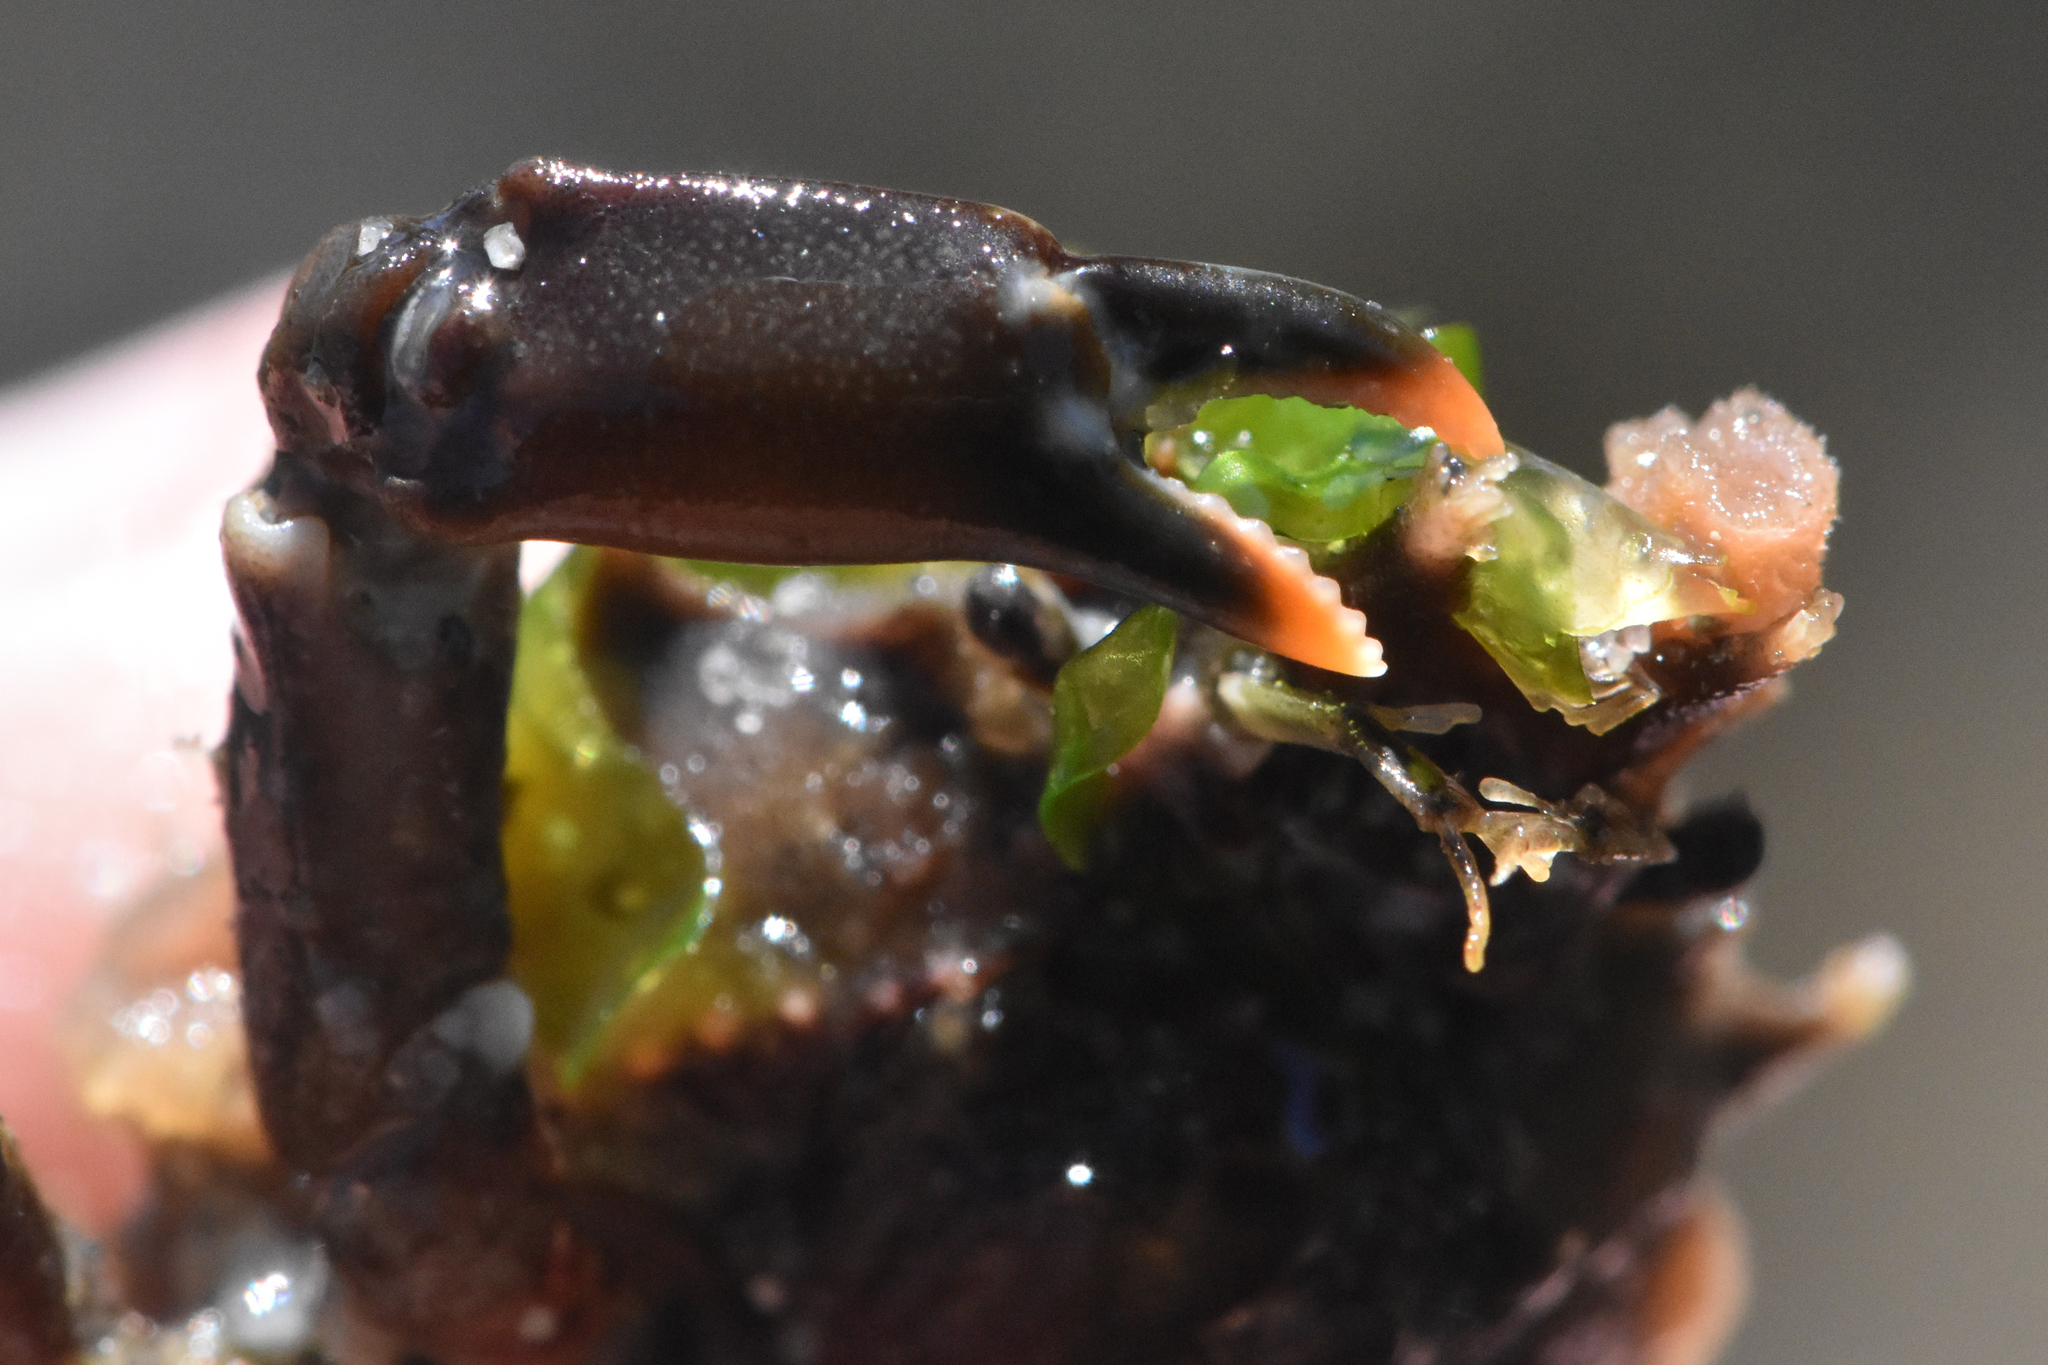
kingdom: Animalia
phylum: Arthropoda
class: Malacostraca
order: Decapoda
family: Epialtidae
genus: Pugettia
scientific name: Pugettia gracilis
